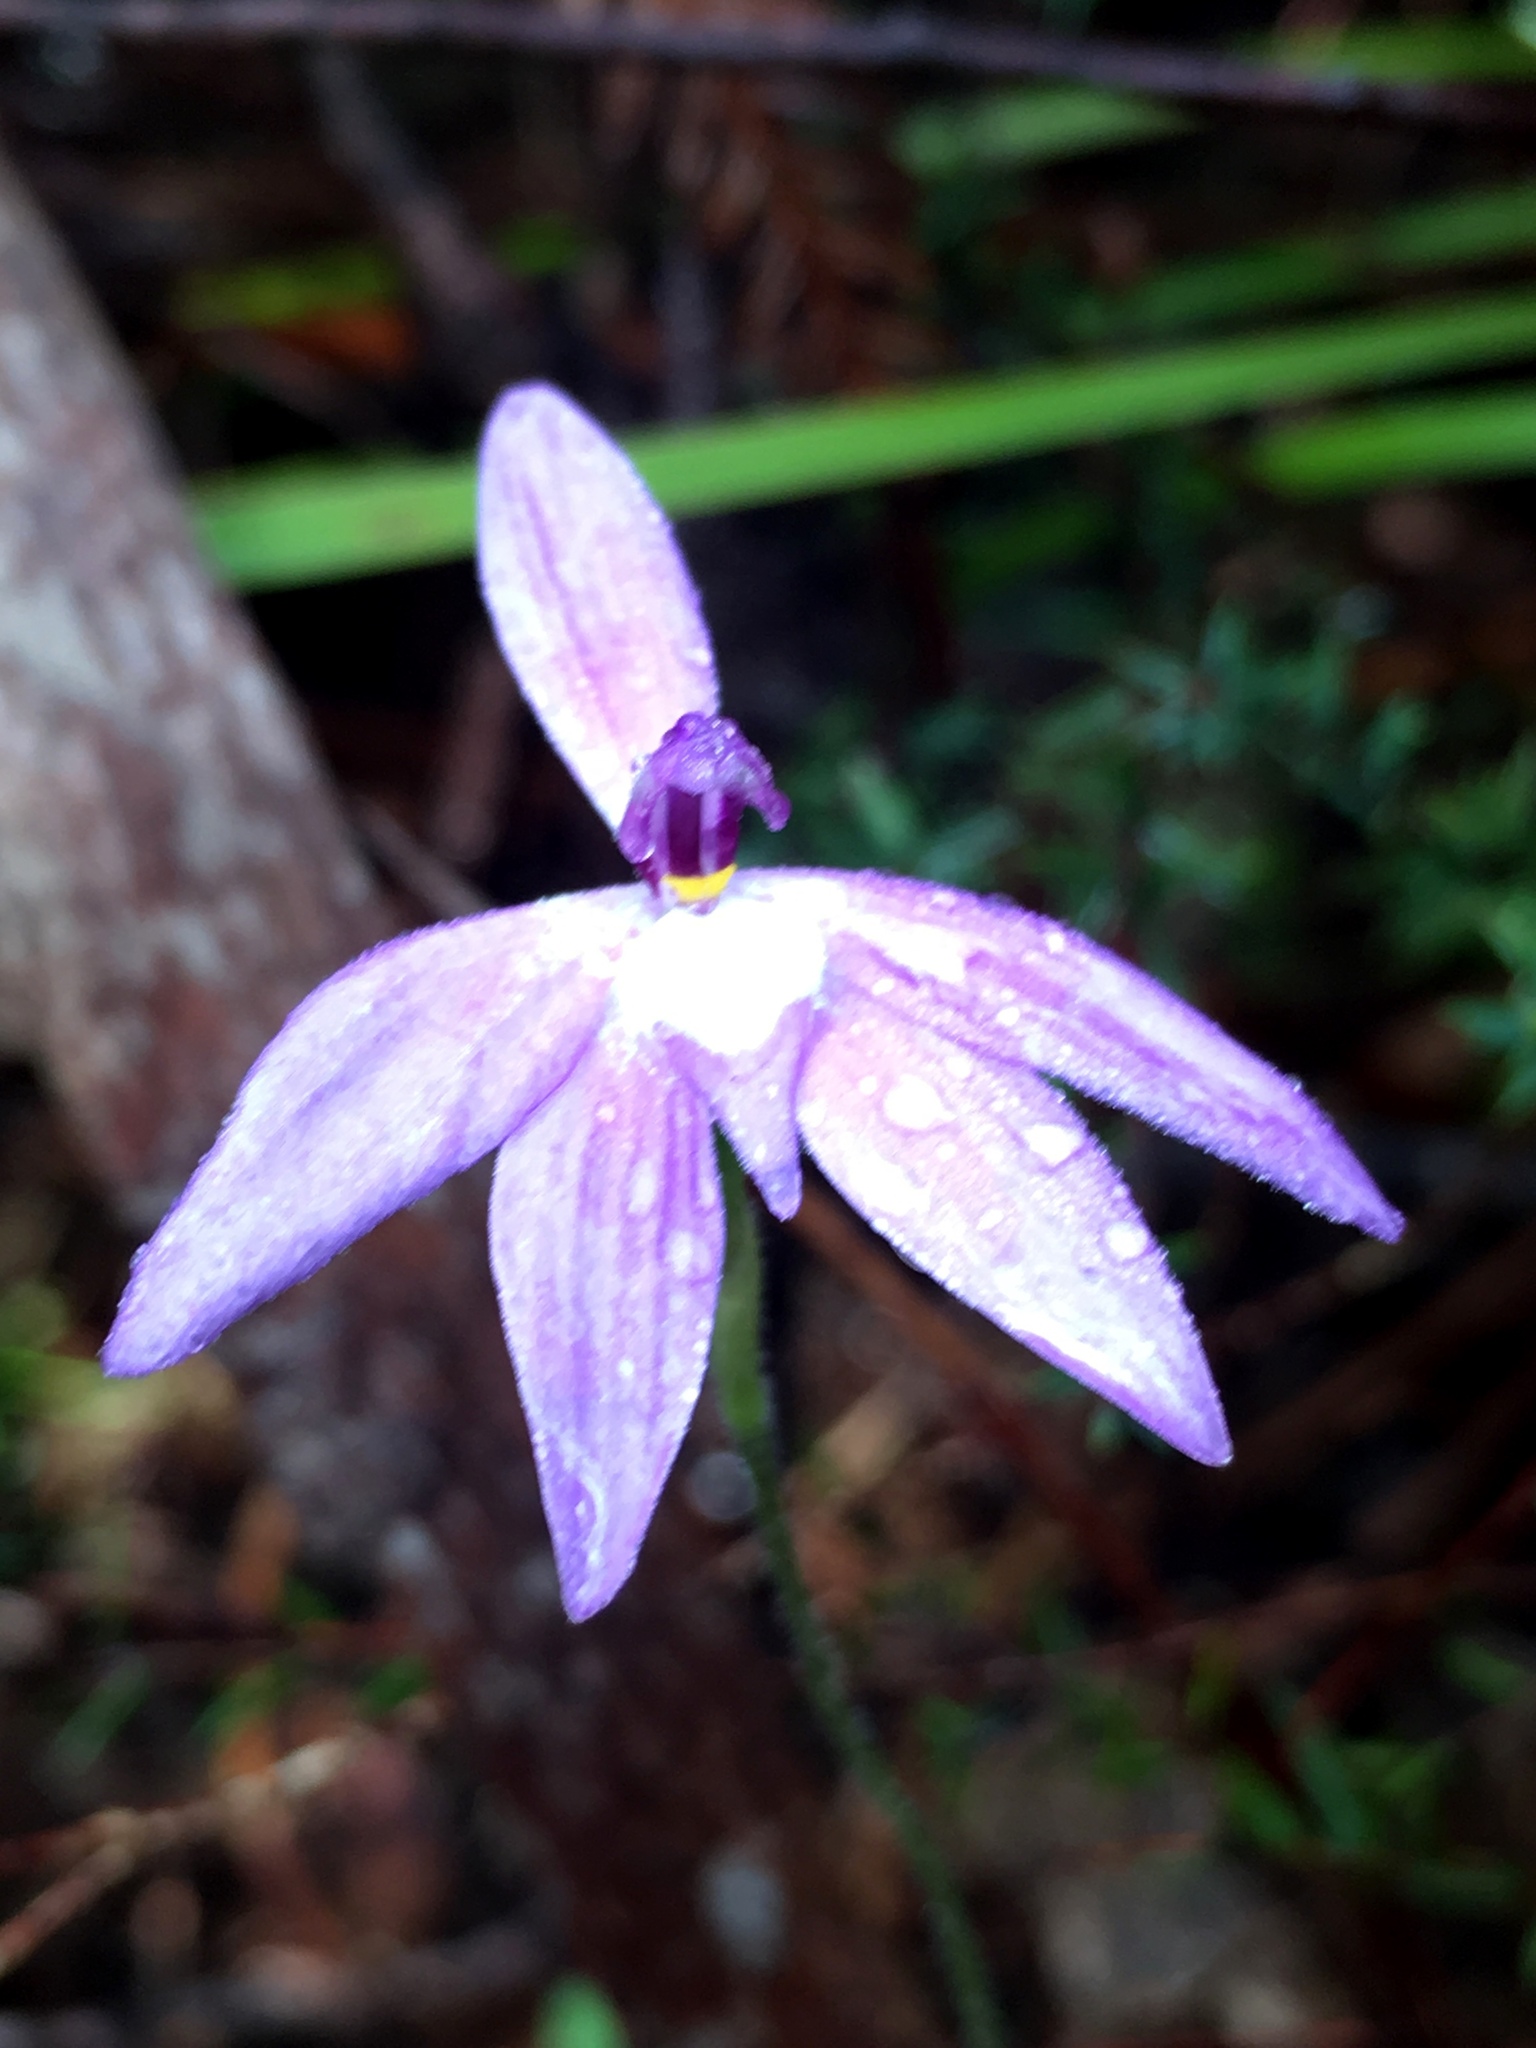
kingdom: Plantae
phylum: Tracheophyta
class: Liliopsida
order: Asparagales
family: Orchidaceae
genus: Caladenia
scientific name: Caladenia major
